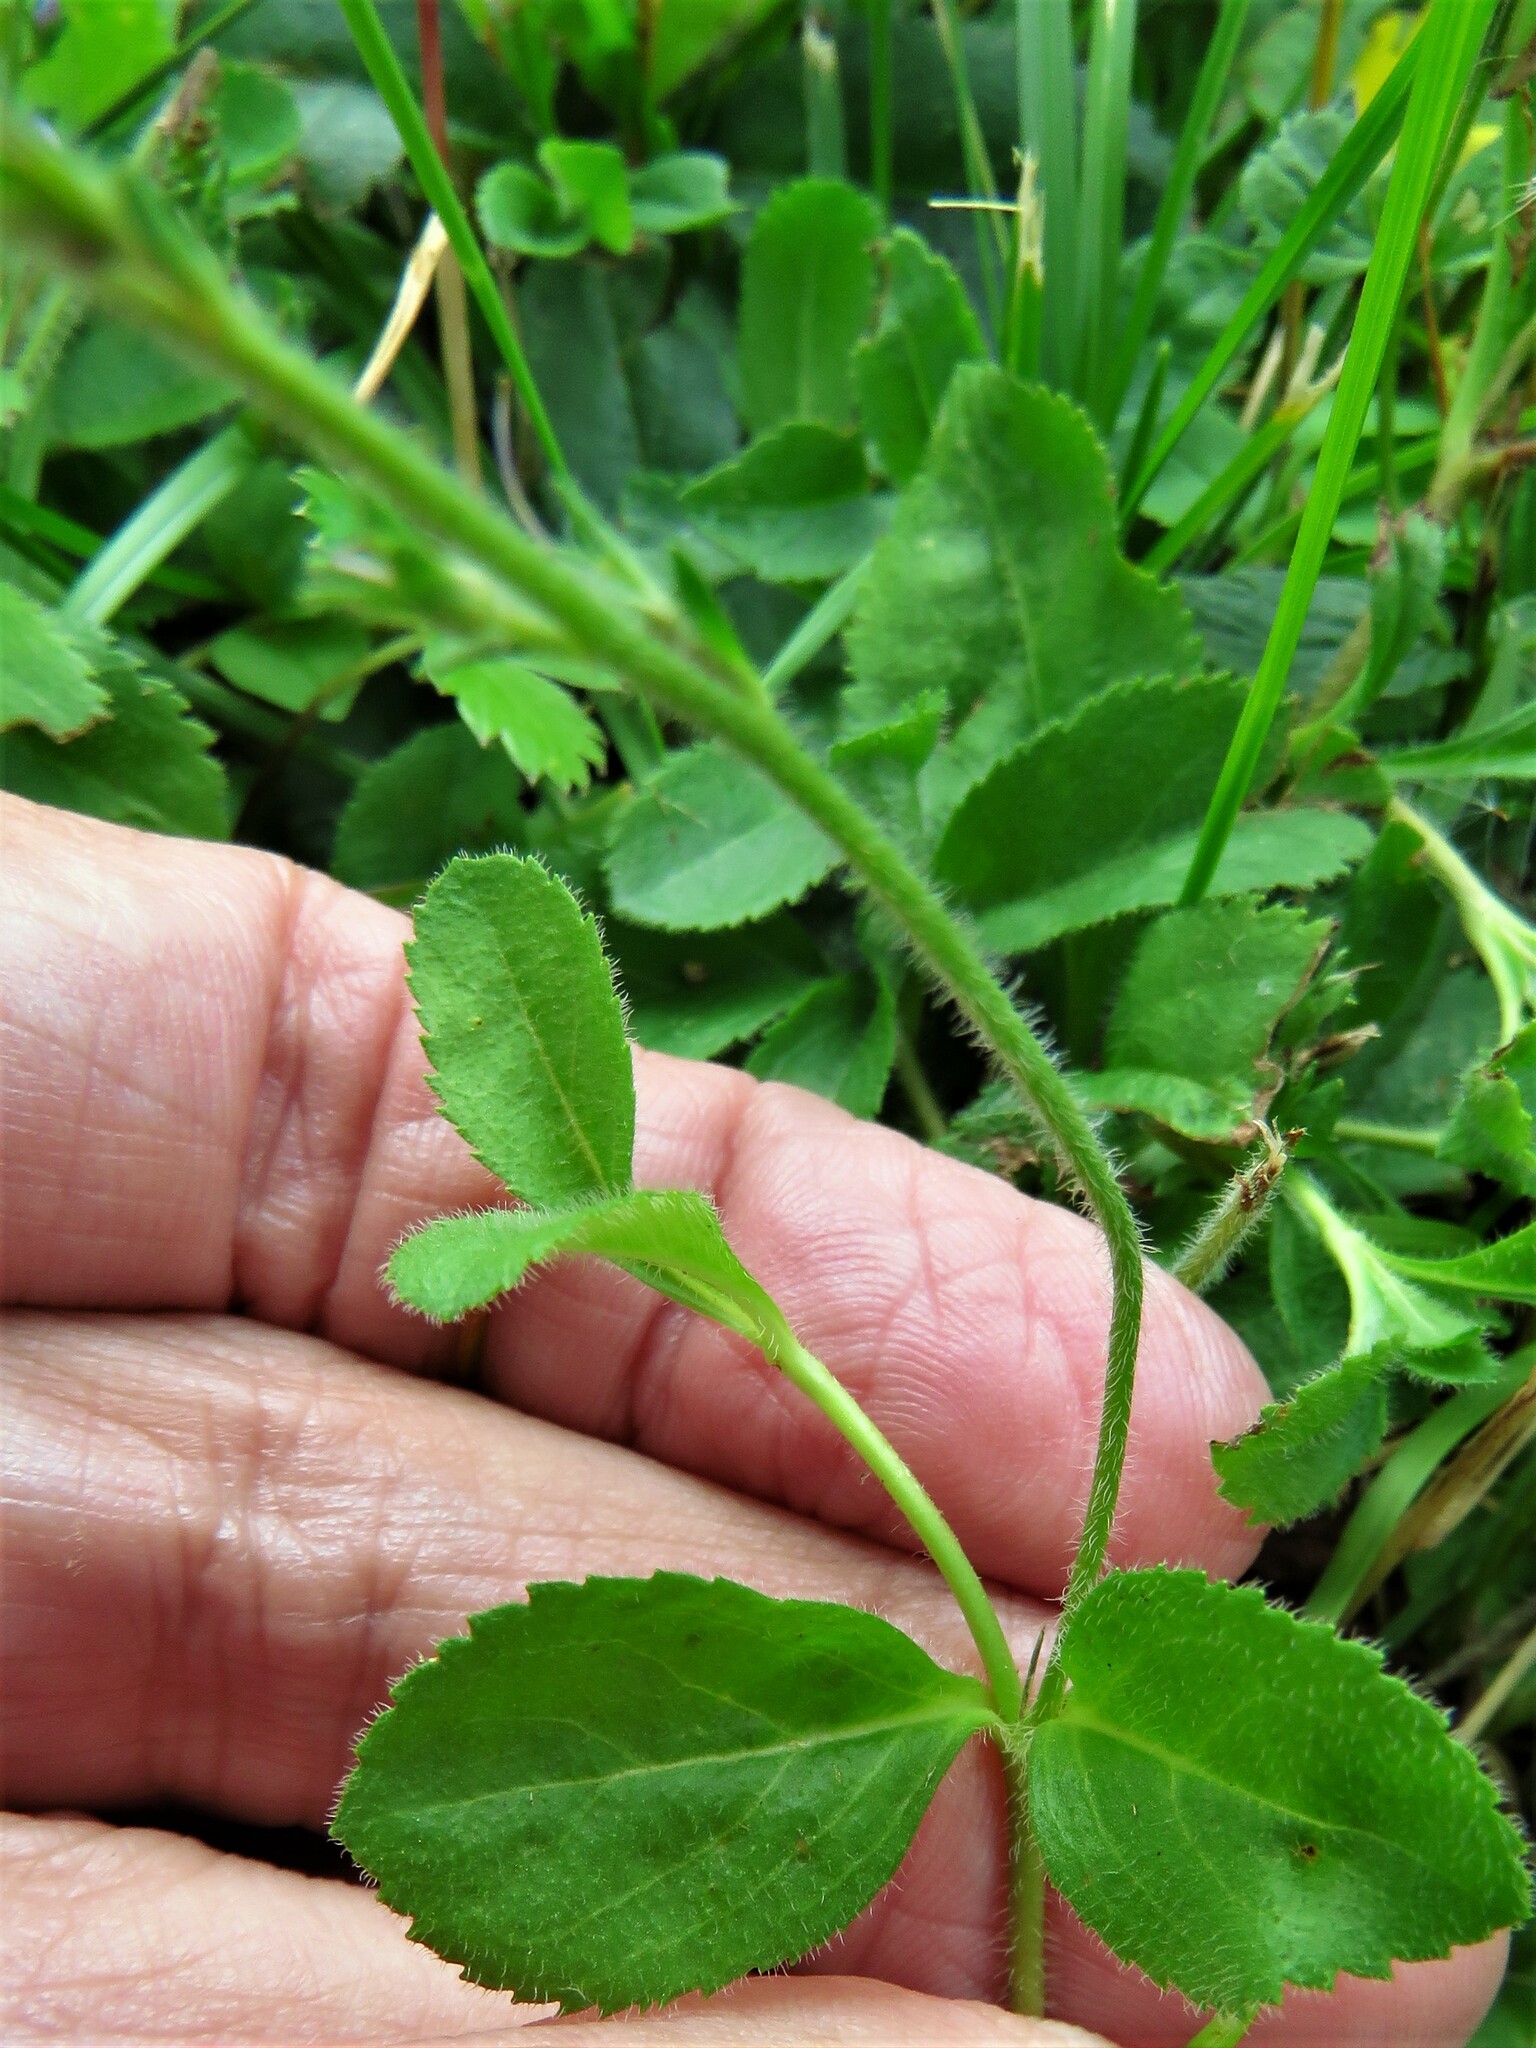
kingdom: Plantae
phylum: Tracheophyta
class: Magnoliopsida
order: Lamiales
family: Plantaginaceae
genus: Veronica
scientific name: Veronica officinalis
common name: Common speedwell
